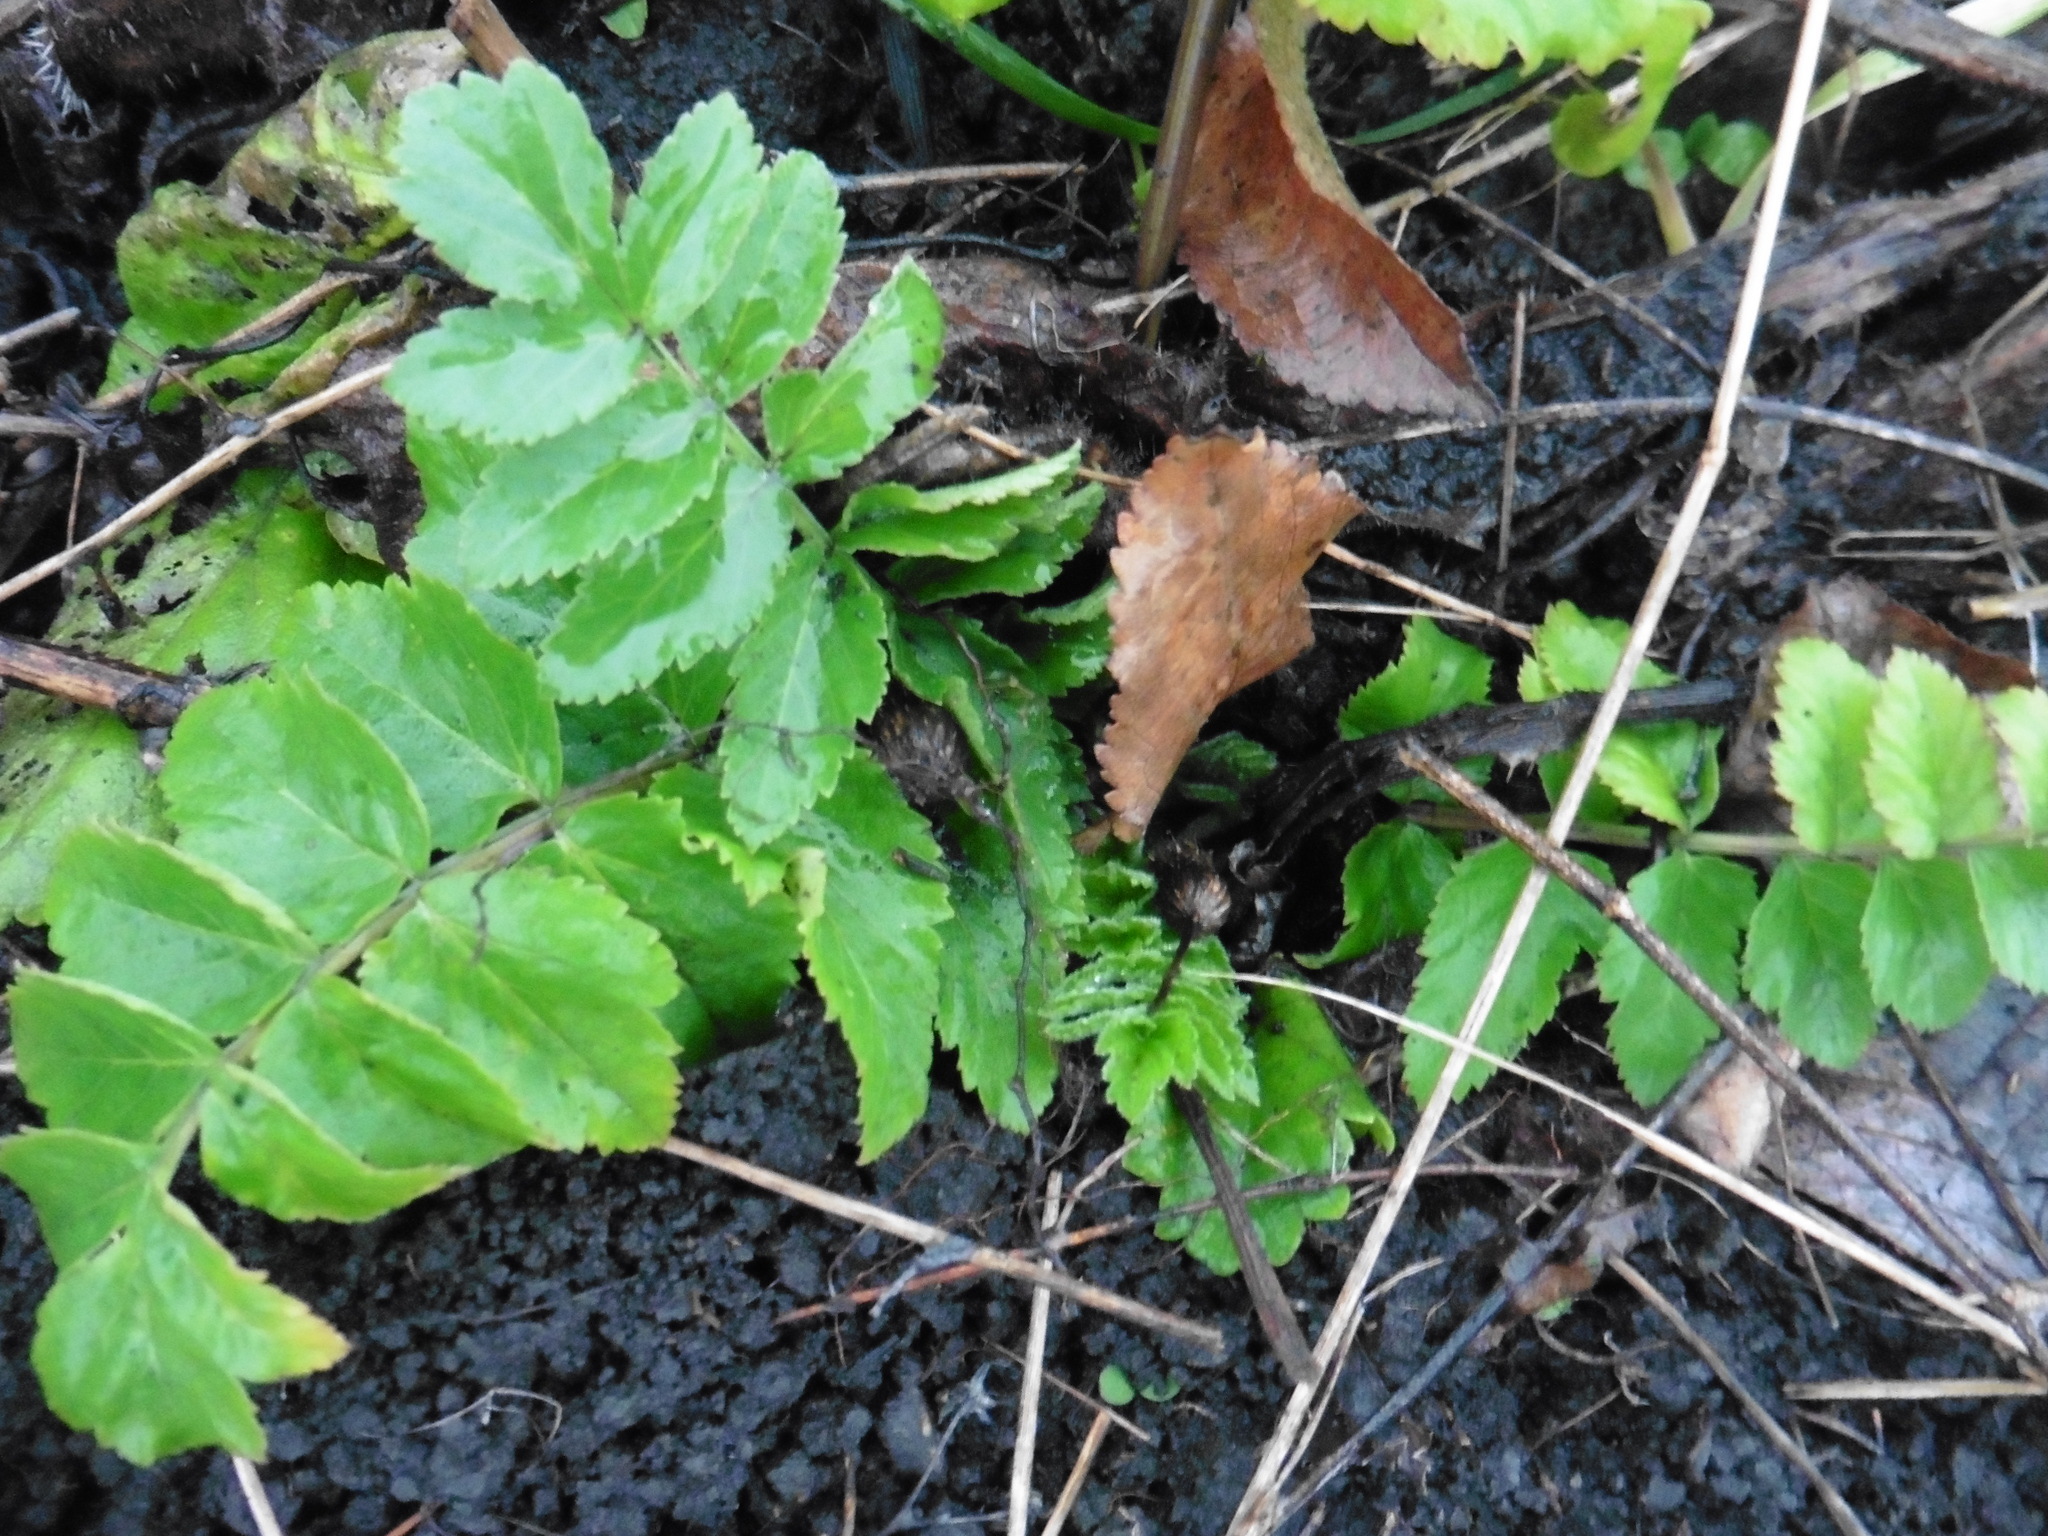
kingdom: Plantae
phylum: Tracheophyta
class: Magnoliopsida
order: Apiales
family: Apiaceae
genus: Pastinaca
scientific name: Pastinaca sativa
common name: Wild parsnip
